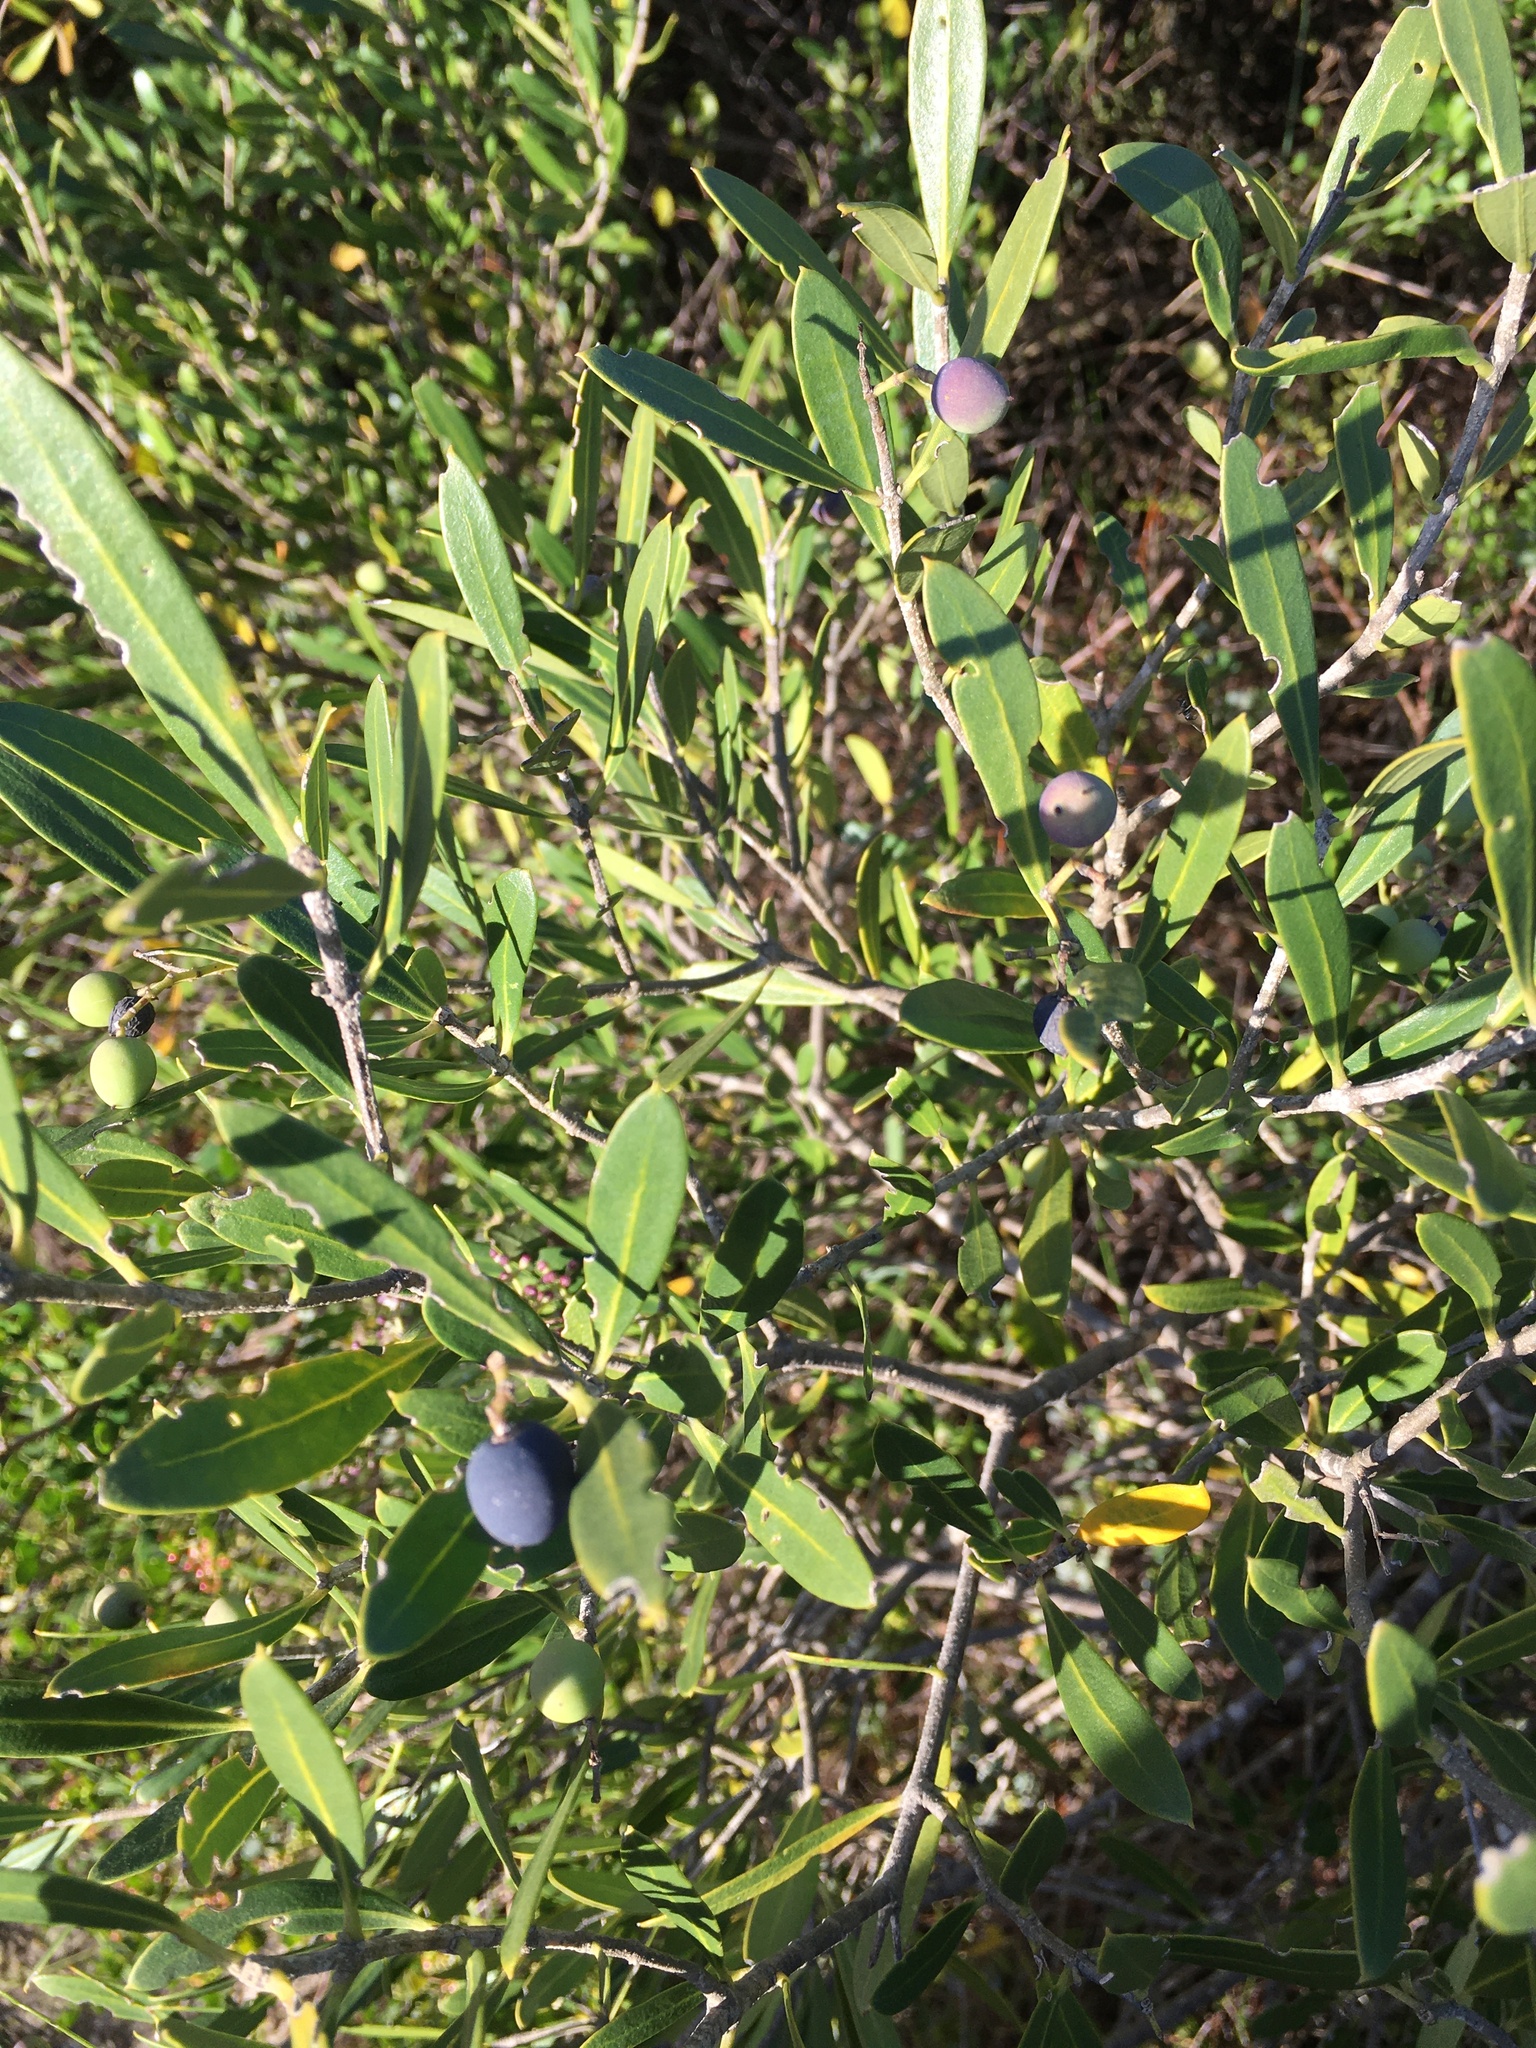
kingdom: Plantae
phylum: Tracheophyta
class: Magnoliopsida
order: Lamiales
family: Oleaceae
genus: Olea
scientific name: Olea exasperata
